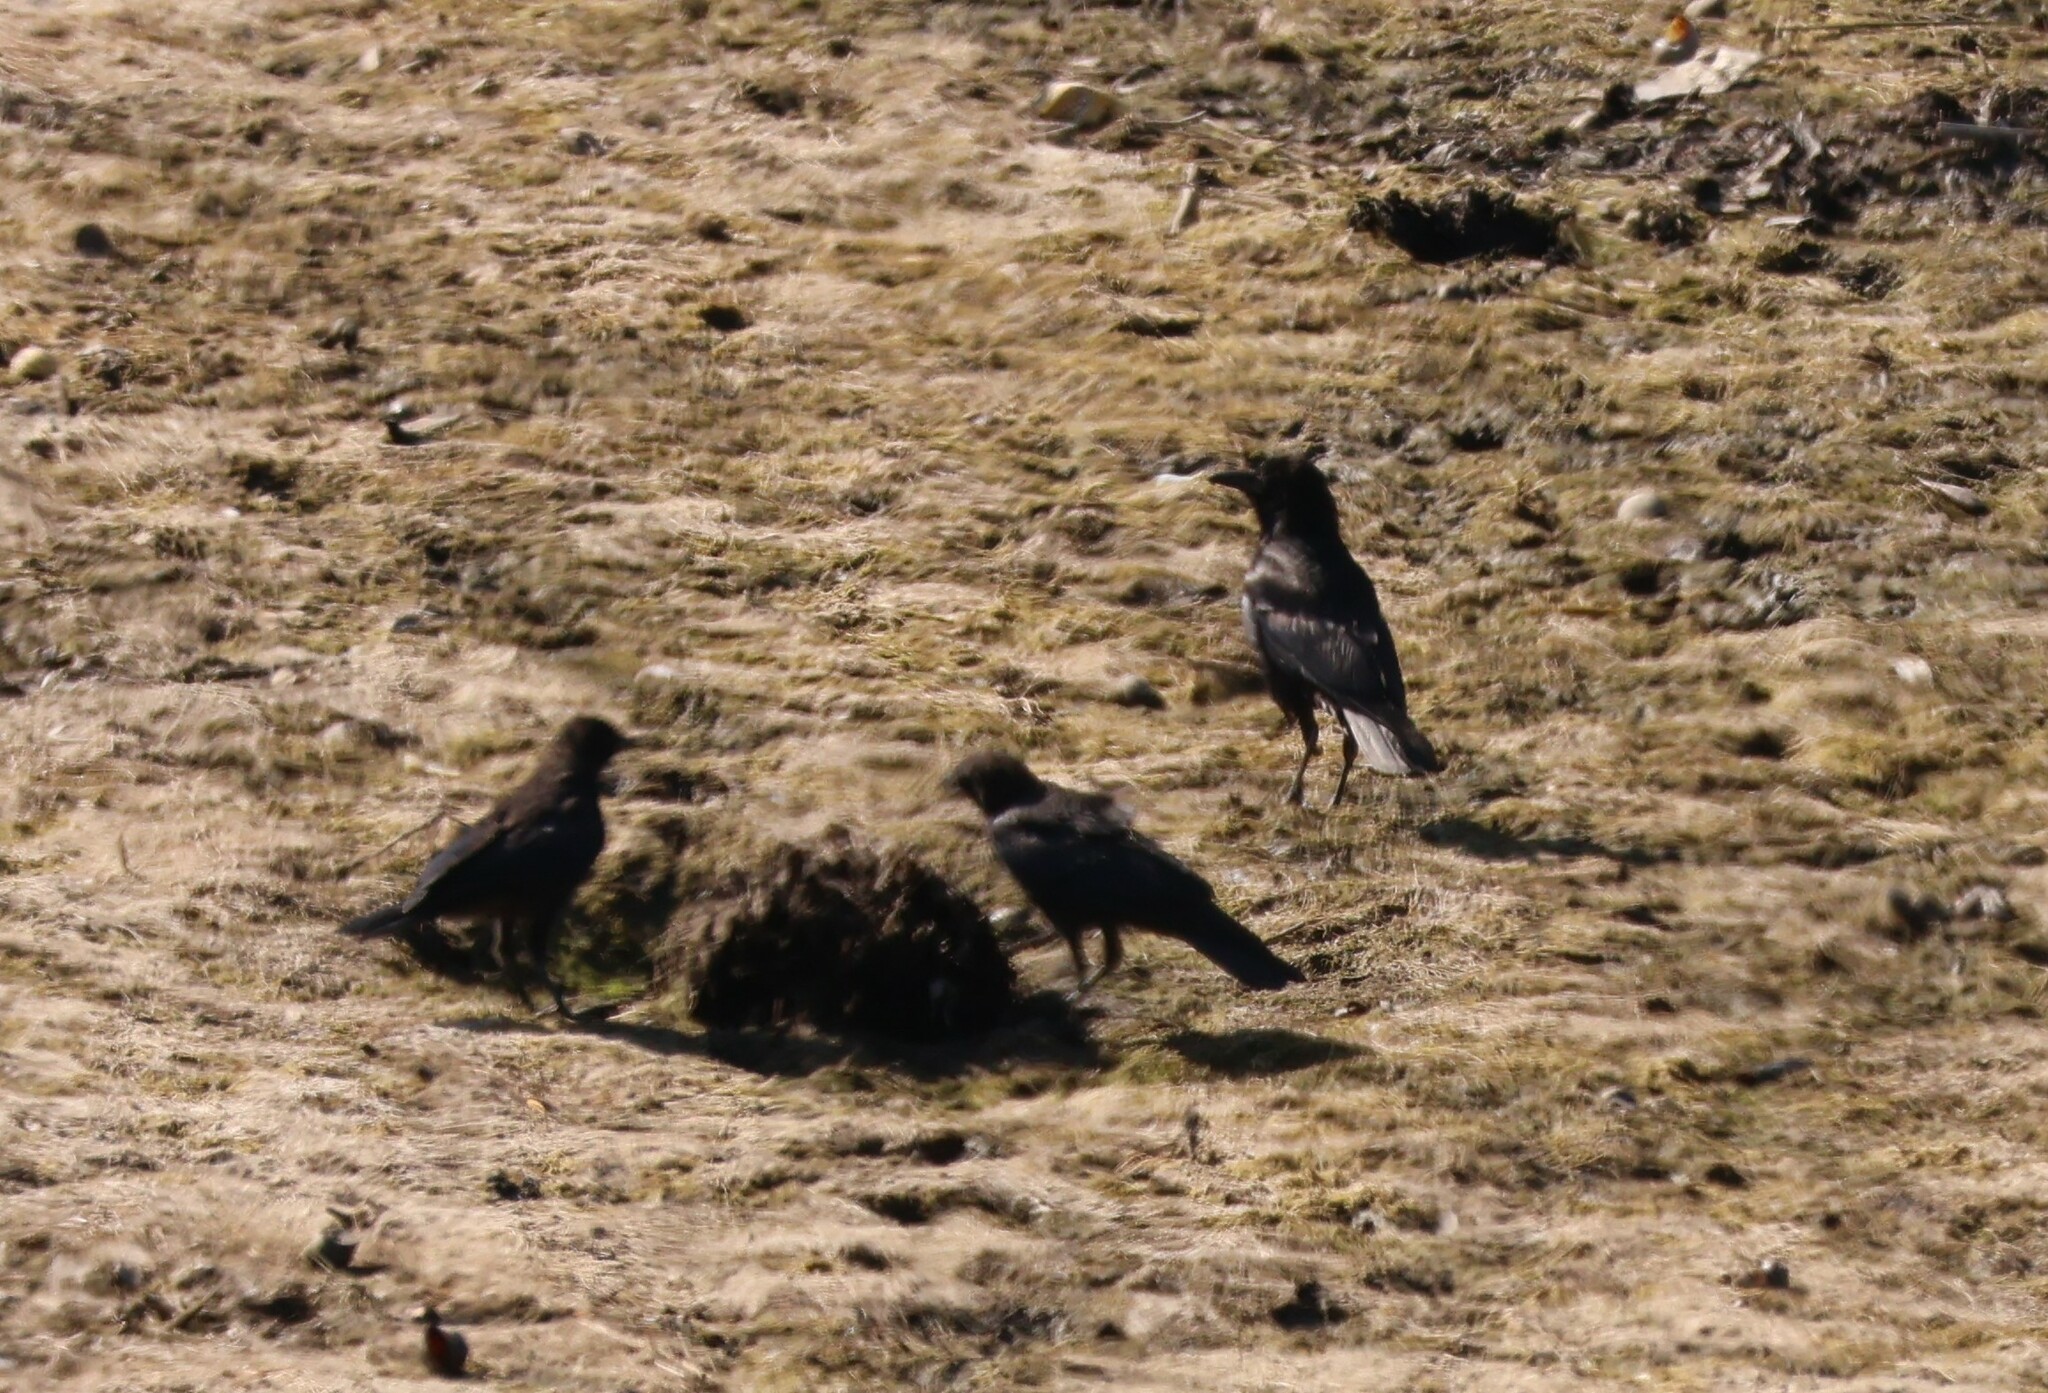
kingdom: Animalia
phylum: Chordata
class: Aves
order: Passeriformes
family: Corvidae
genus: Corvus
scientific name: Corvus brachyrhynchos
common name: American crow
